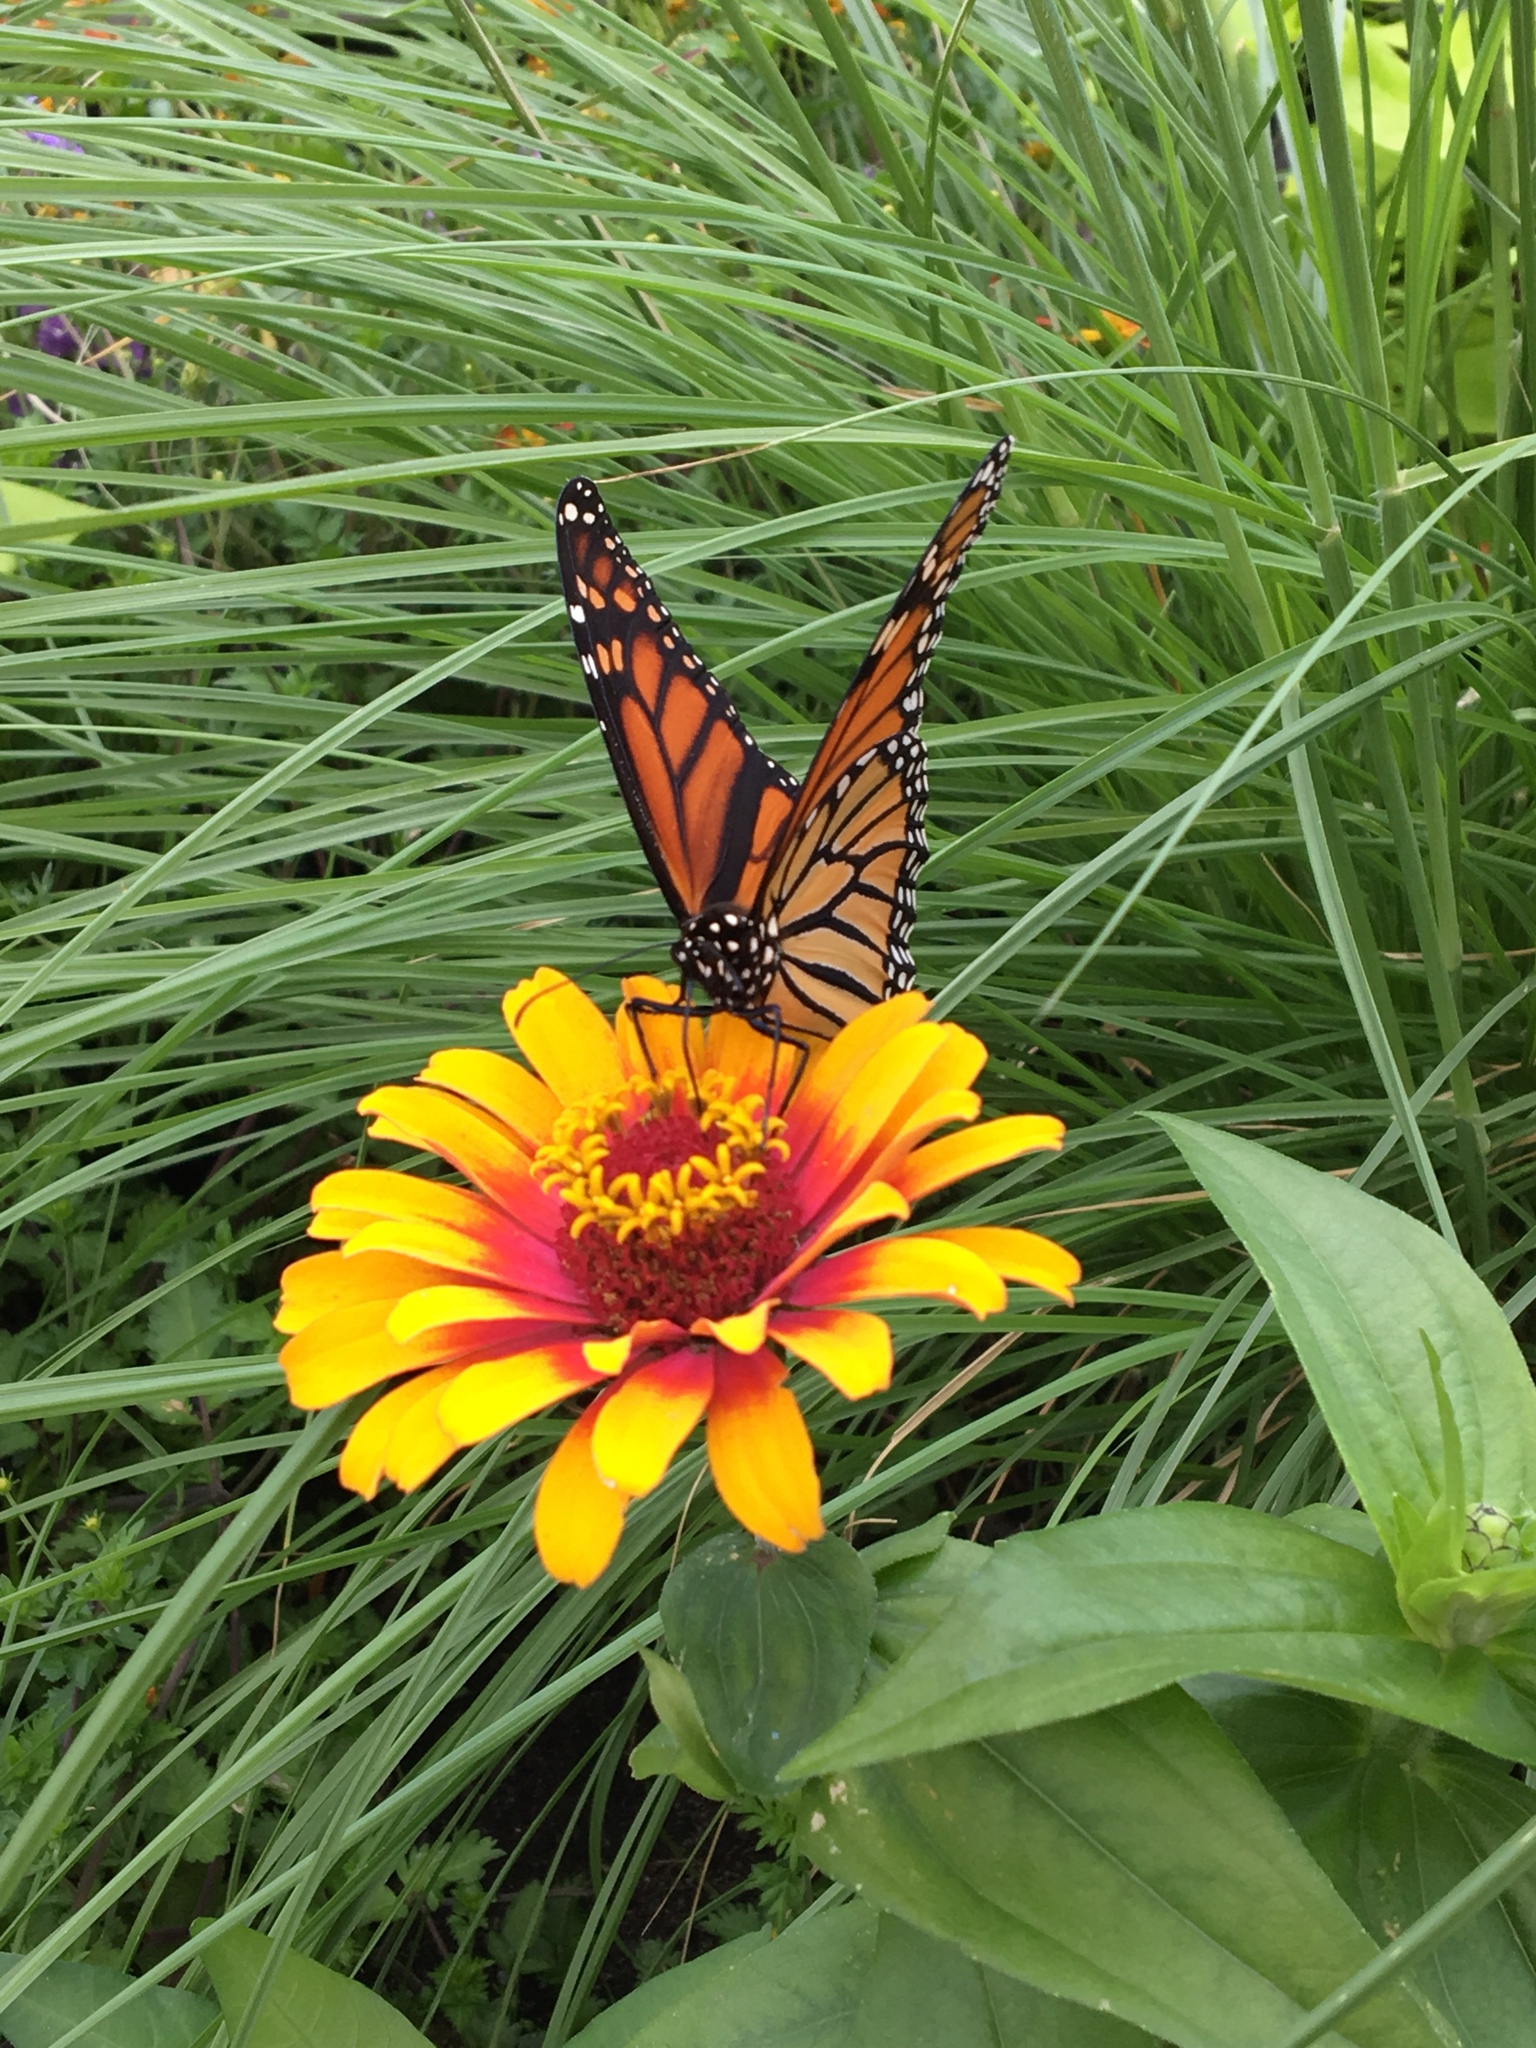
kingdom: Animalia
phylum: Arthropoda
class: Insecta
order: Lepidoptera
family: Nymphalidae
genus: Danaus
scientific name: Danaus plexippus
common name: Monarch
